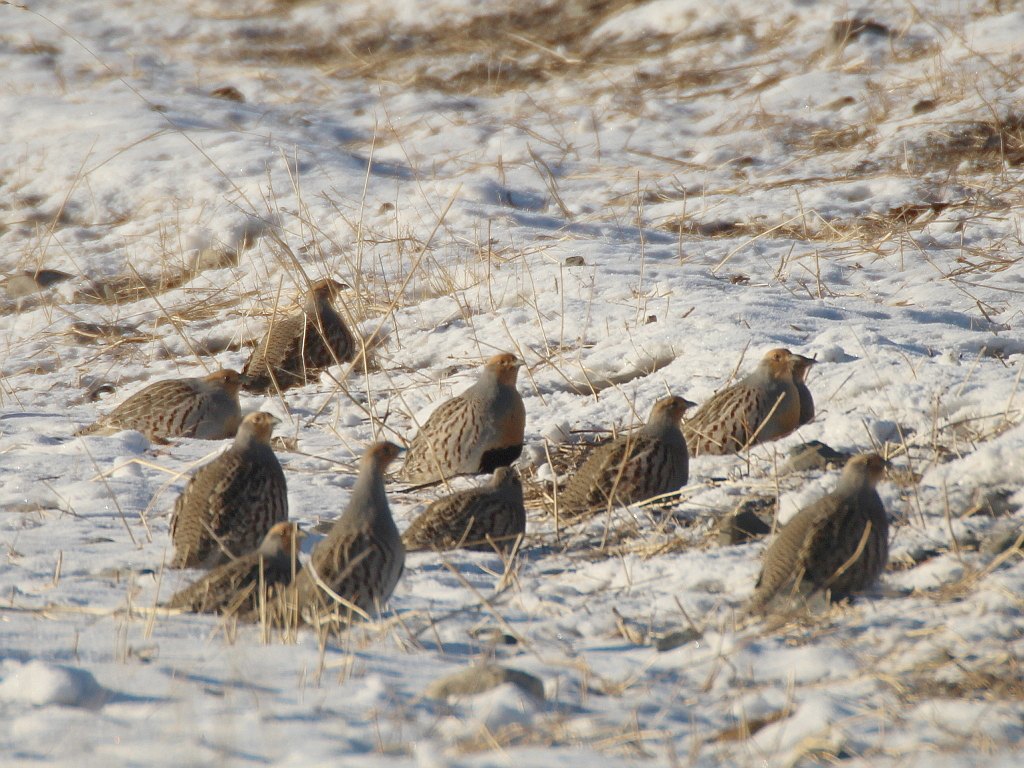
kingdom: Animalia
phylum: Chordata
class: Aves
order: Galliformes
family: Phasianidae
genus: Perdix
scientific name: Perdix dauurica
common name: Daurian partridge
